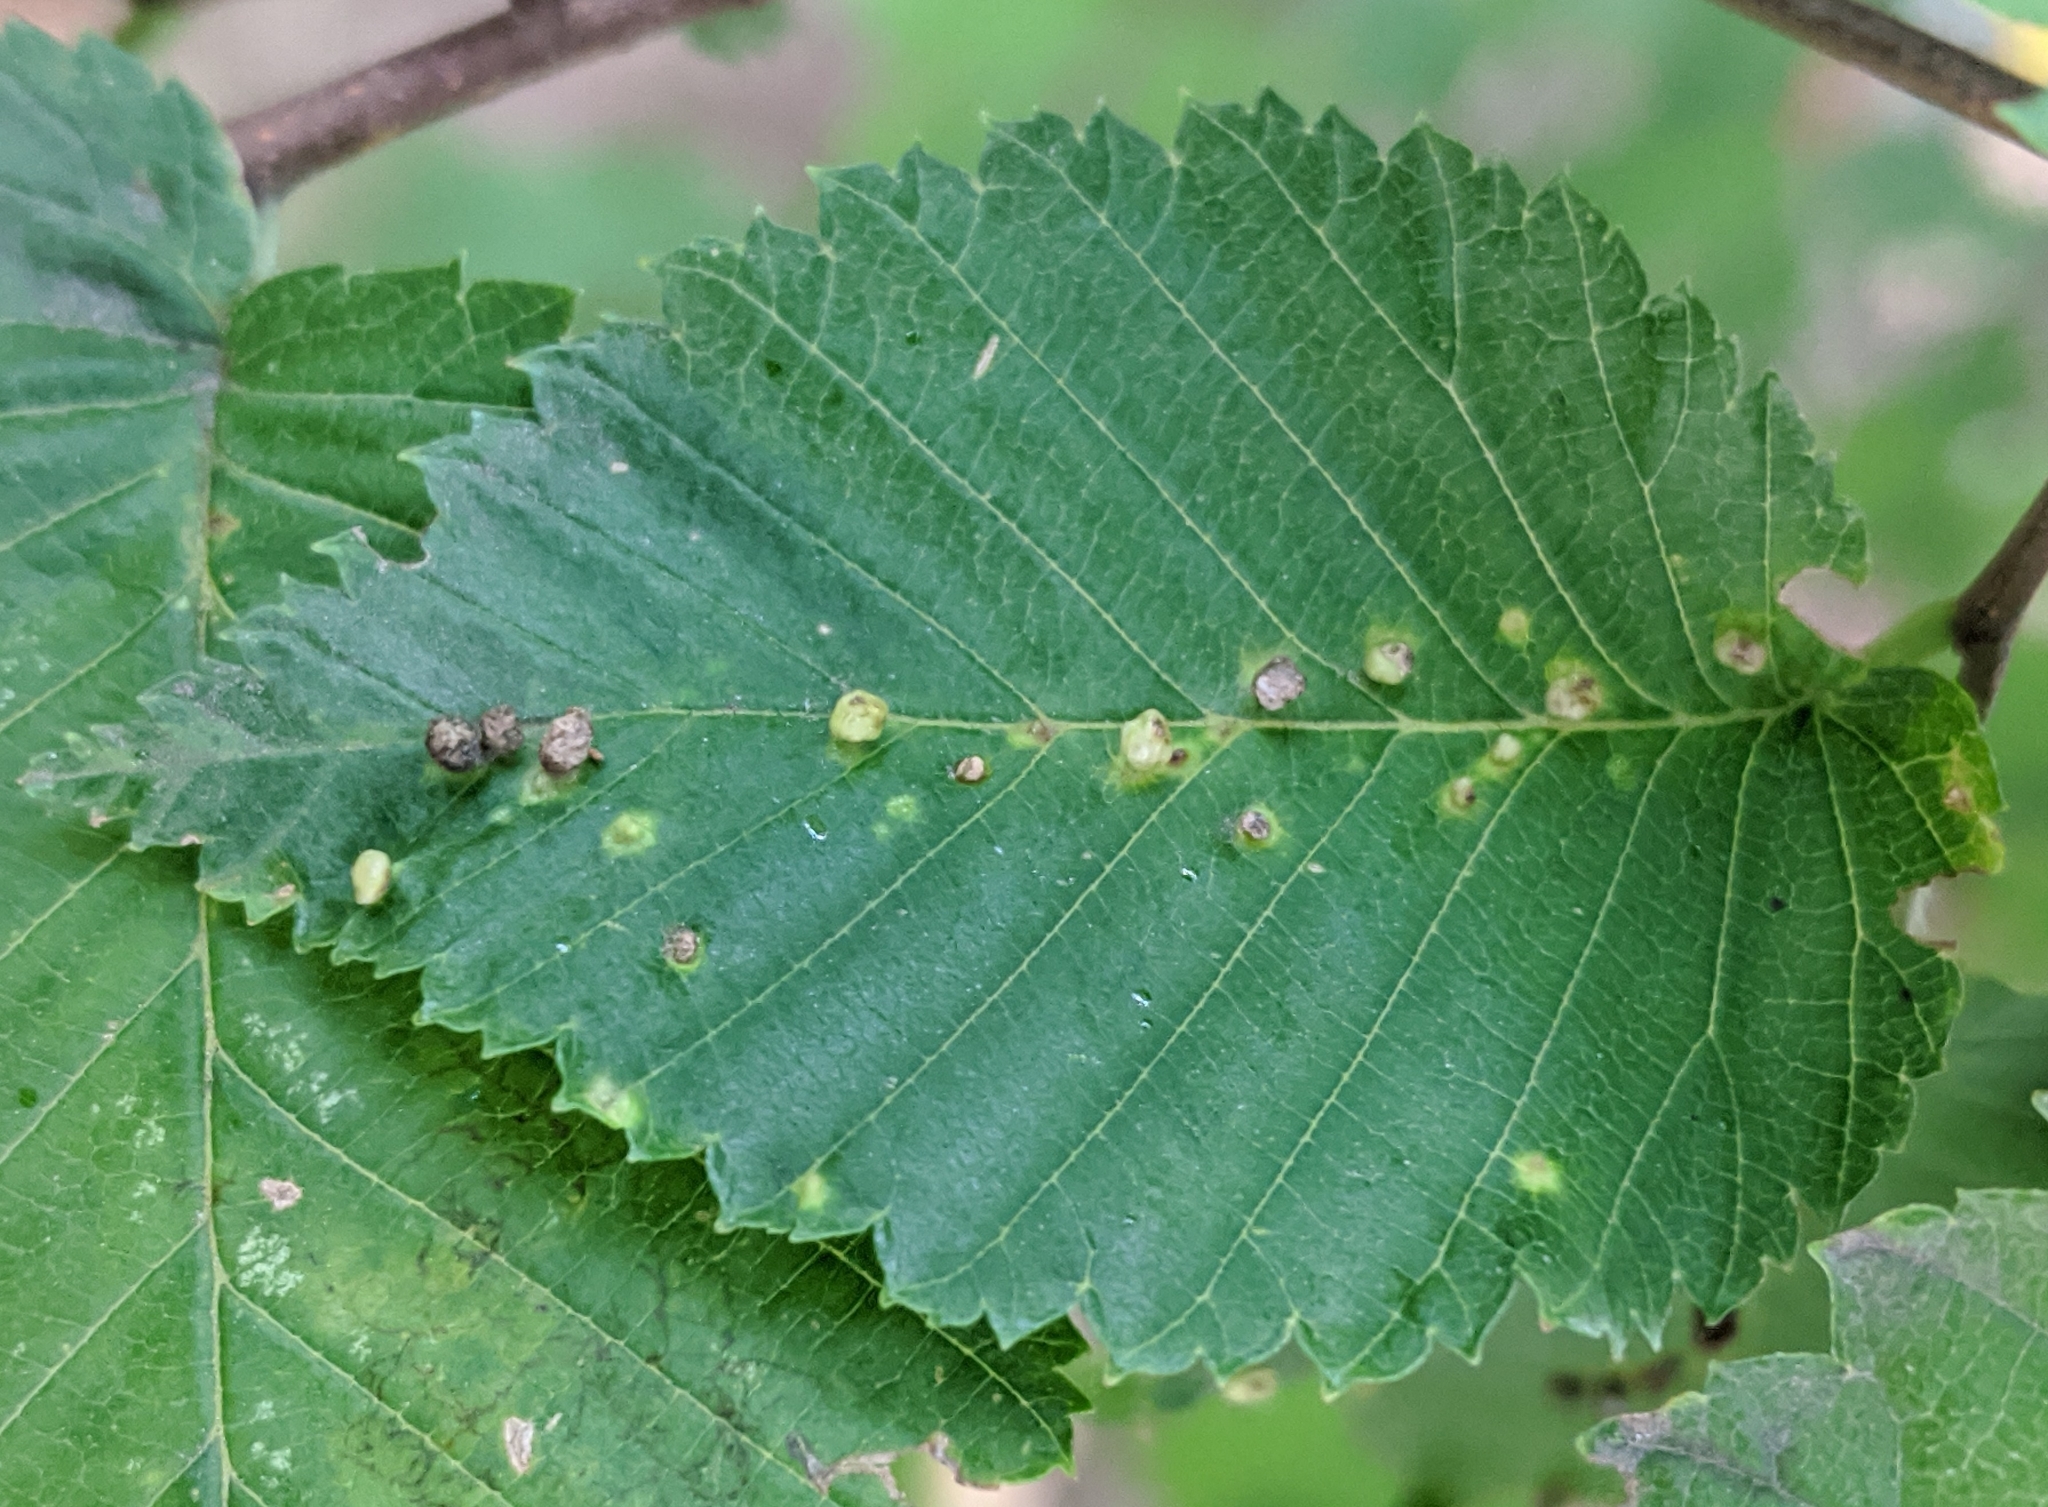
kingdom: Animalia
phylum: Arthropoda
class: Arachnida
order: Trombidiformes
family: Eriophyidae
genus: Aceria
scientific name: Aceria brevipunctata
